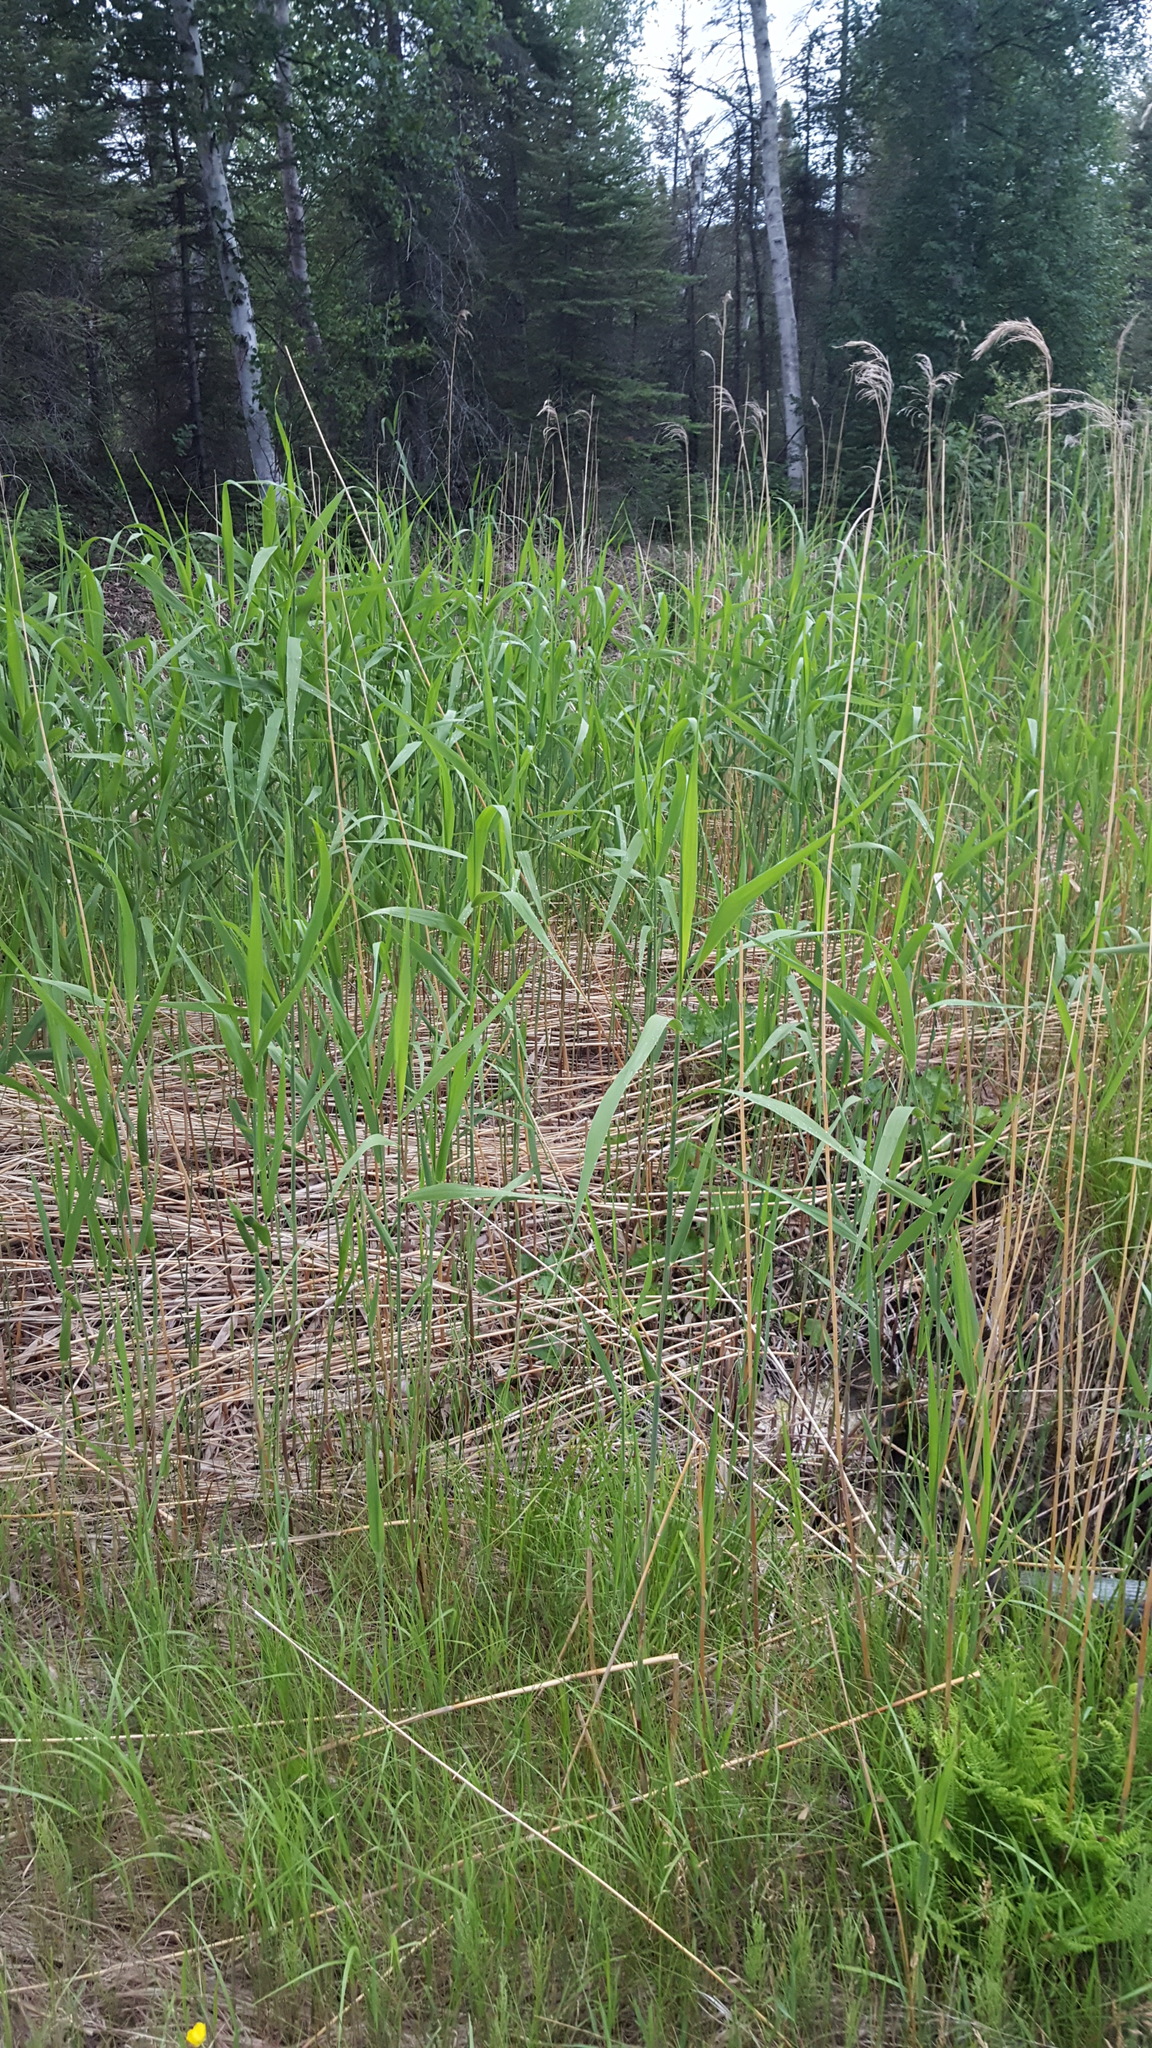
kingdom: Plantae
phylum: Tracheophyta
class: Liliopsida
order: Poales
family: Poaceae
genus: Phragmites
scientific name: Phragmites australis
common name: Common reed
